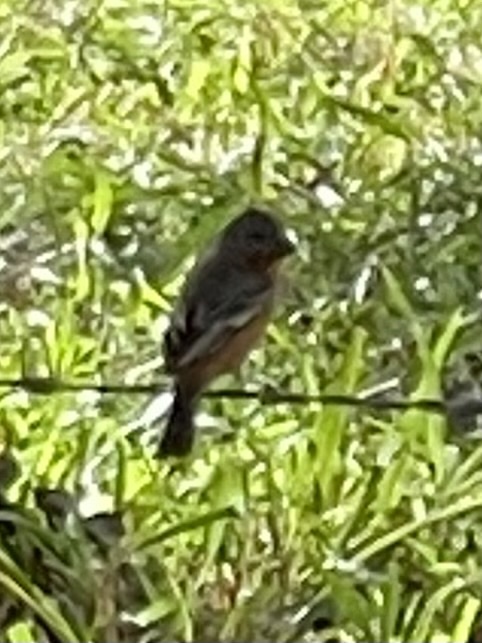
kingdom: Animalia
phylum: Chordata
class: Aves
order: Passeriformes
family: Thraupidae
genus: Sporophila
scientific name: Sporophila minuta
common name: Ruddy-breasted seedeater
